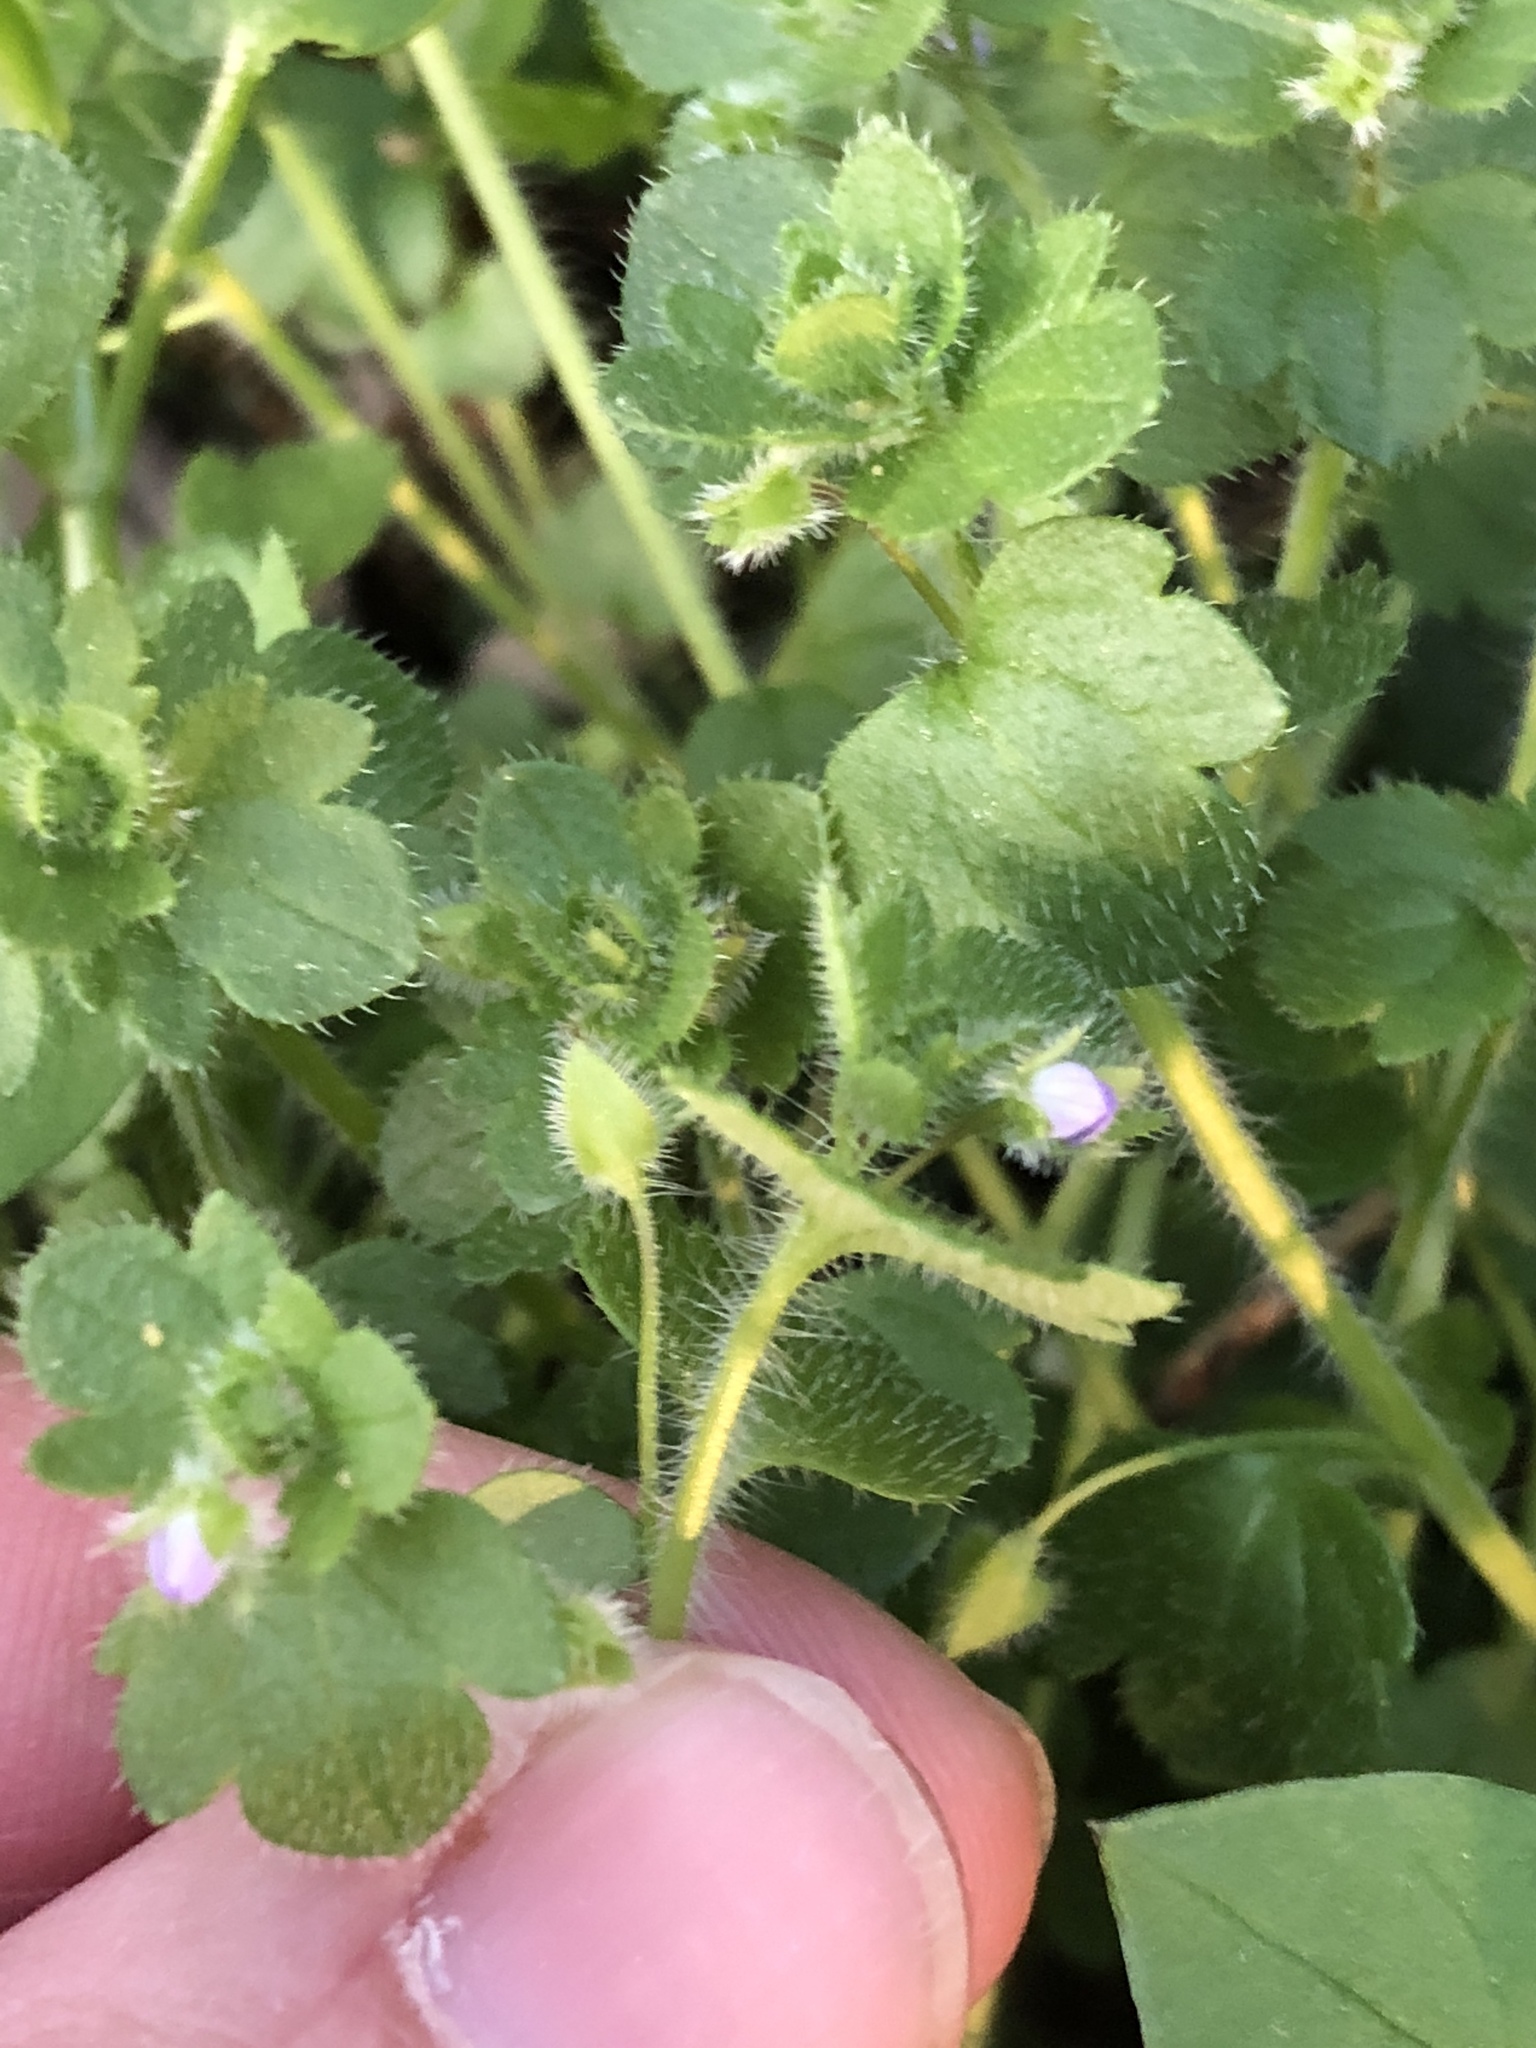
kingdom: Plantae
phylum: Tracheophyta
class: Magnoliopsida
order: Lamiales
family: Plantaginaceae
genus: Veronica
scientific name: Veronica hederifolia
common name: Ivy-leaved speedwell
